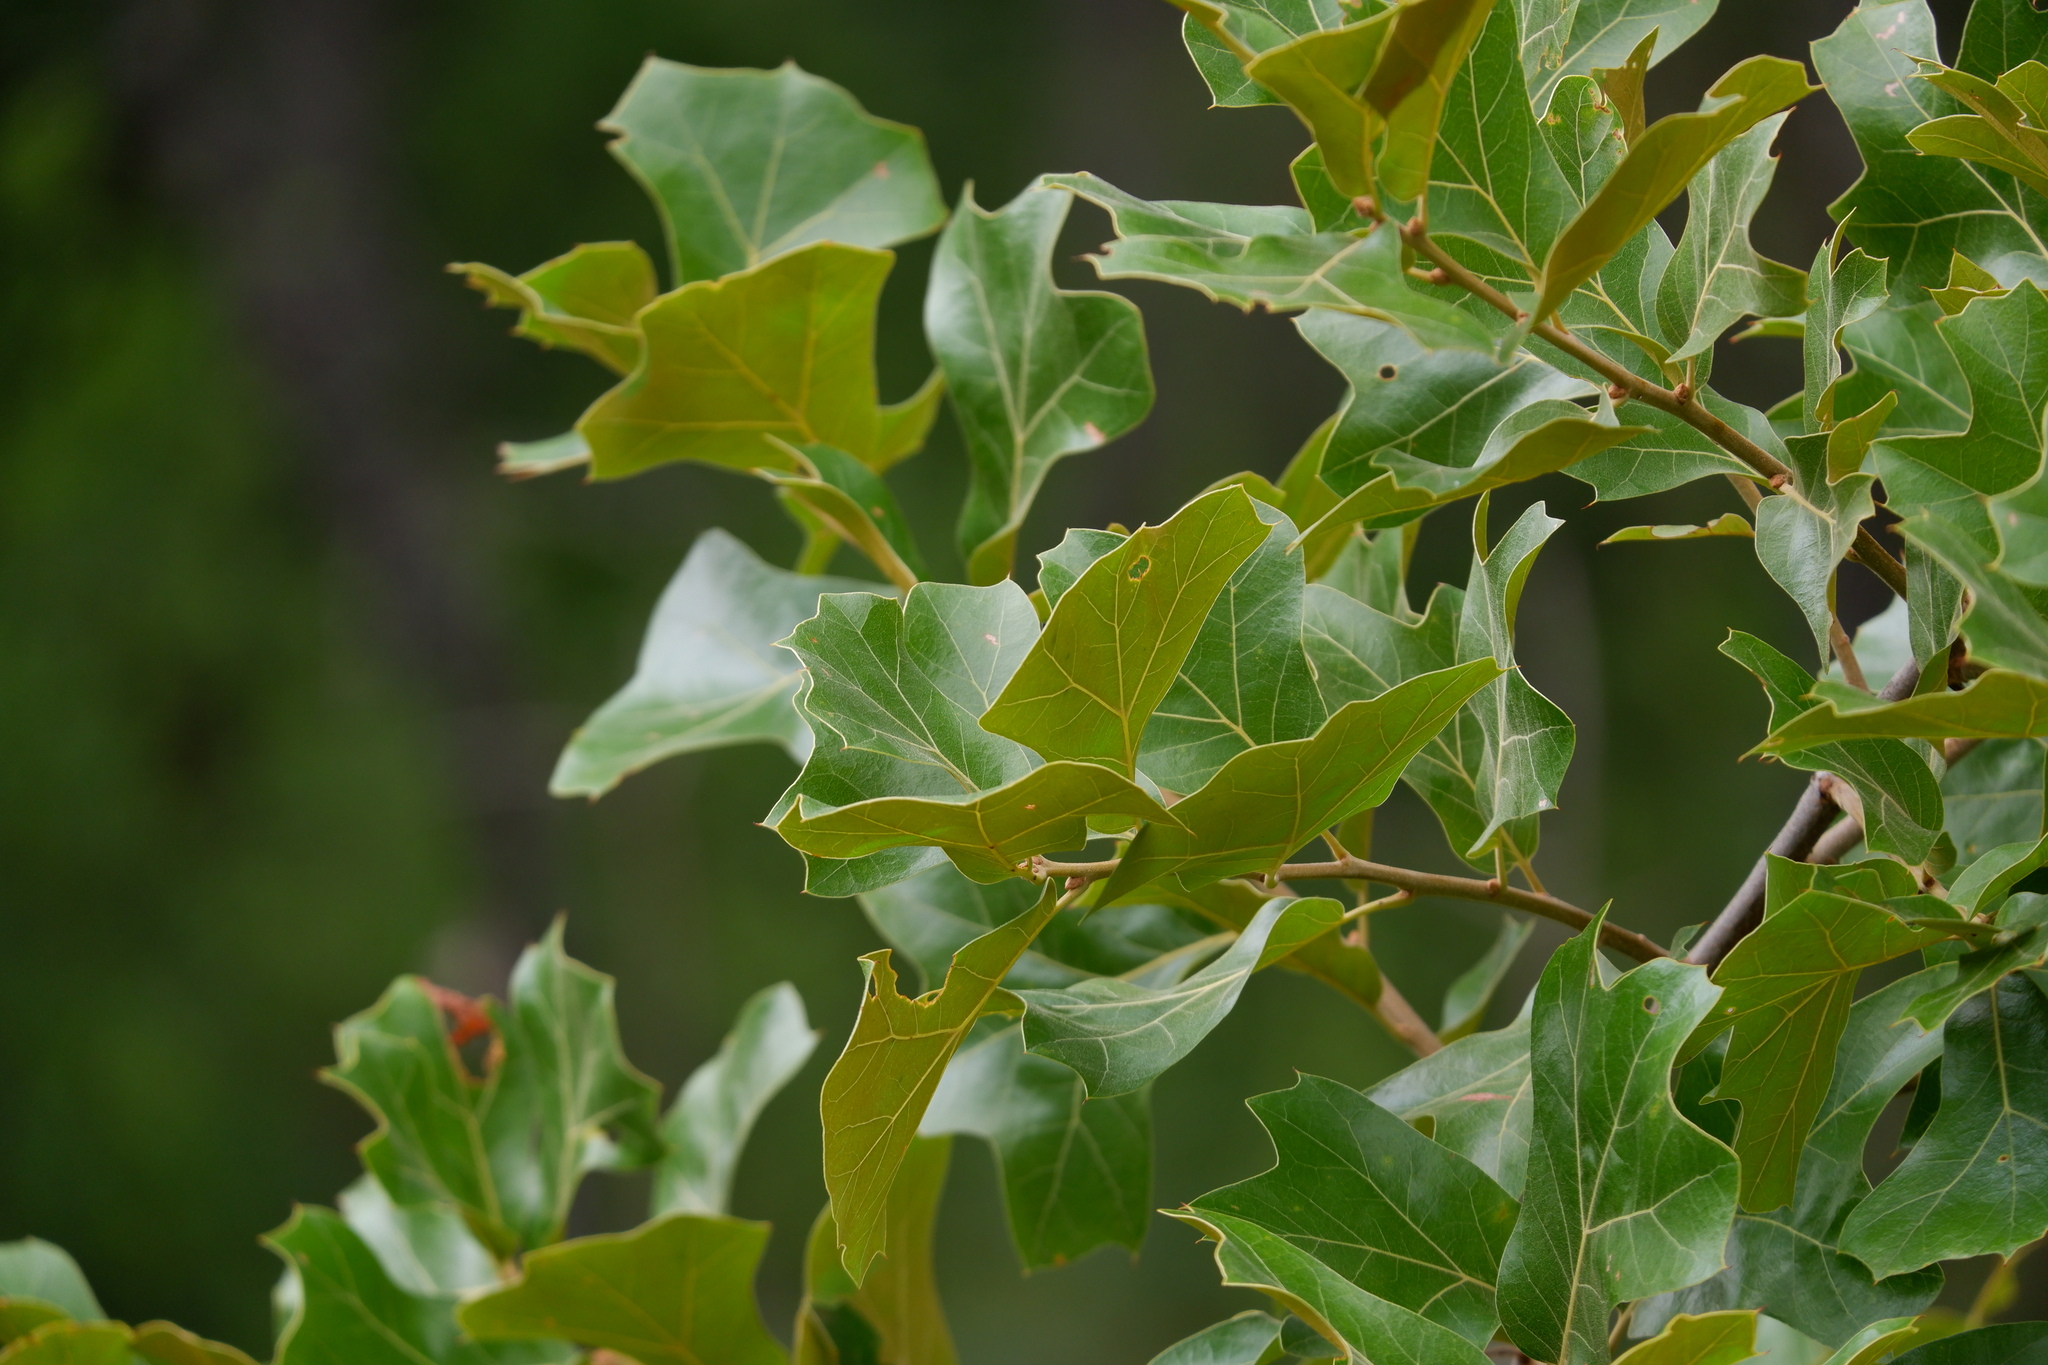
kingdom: Plantae
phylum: Tracheophyta
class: Magnoliopsida
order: Fagales
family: Fagaceae
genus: Quercus
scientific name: Quercus marilandica
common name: Blackjack oak
